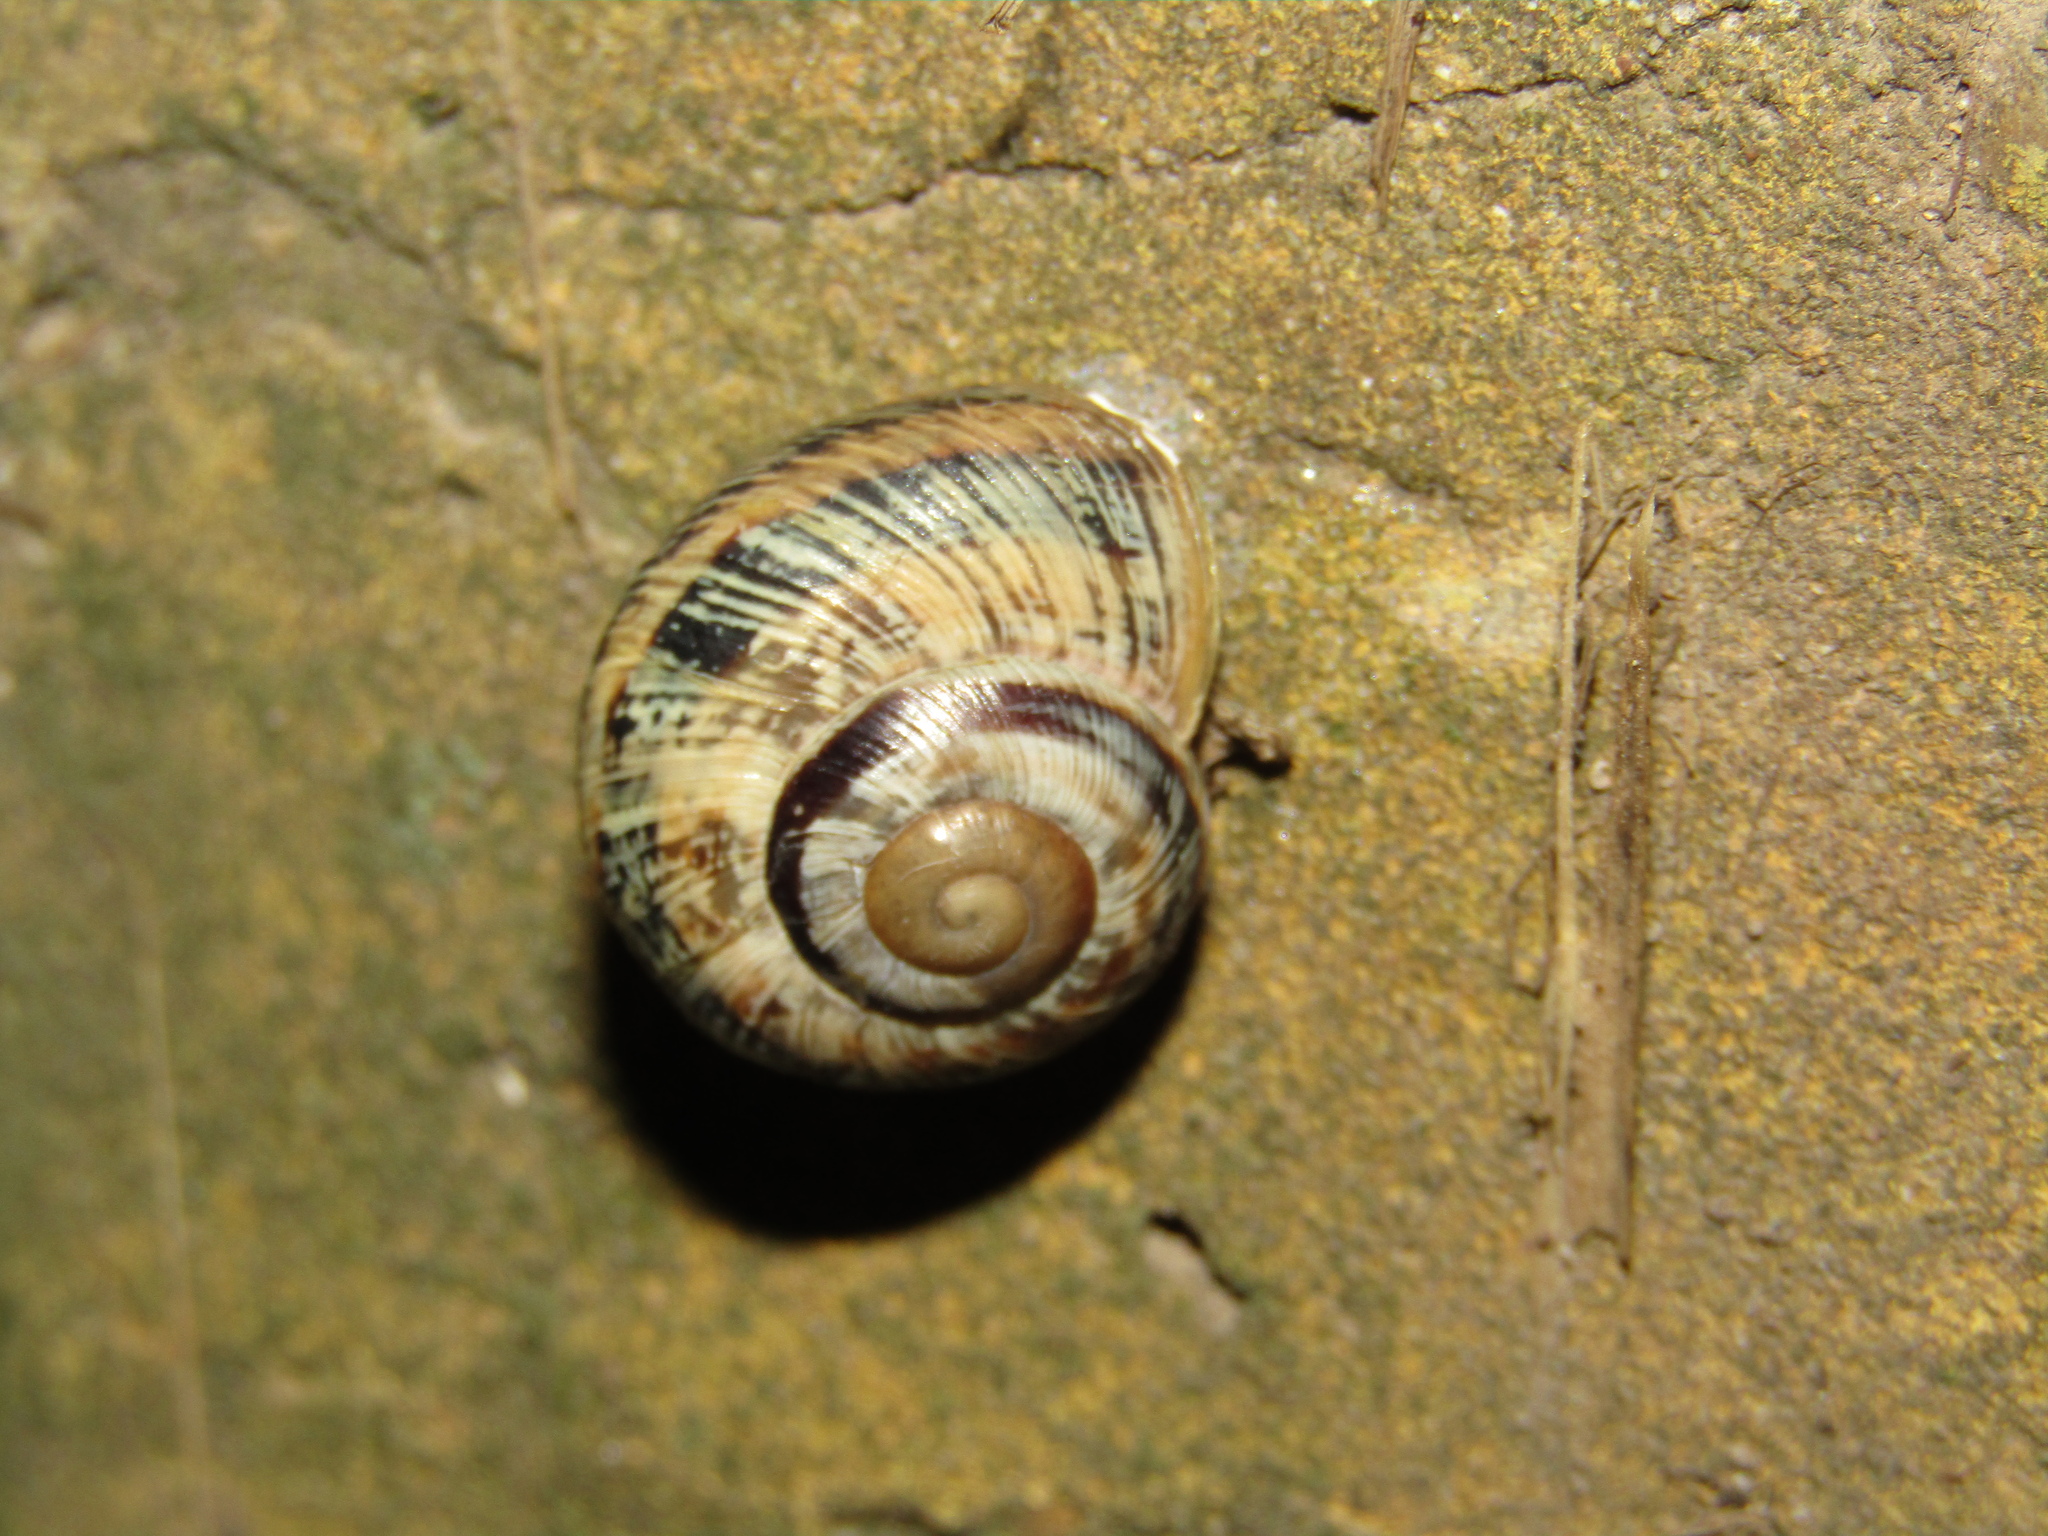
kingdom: Animalia
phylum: Mollusca
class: Gastropoda
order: Stylommatophora
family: Helicidae
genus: Caucasotachea
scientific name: Caucasotachea atrolabiata
